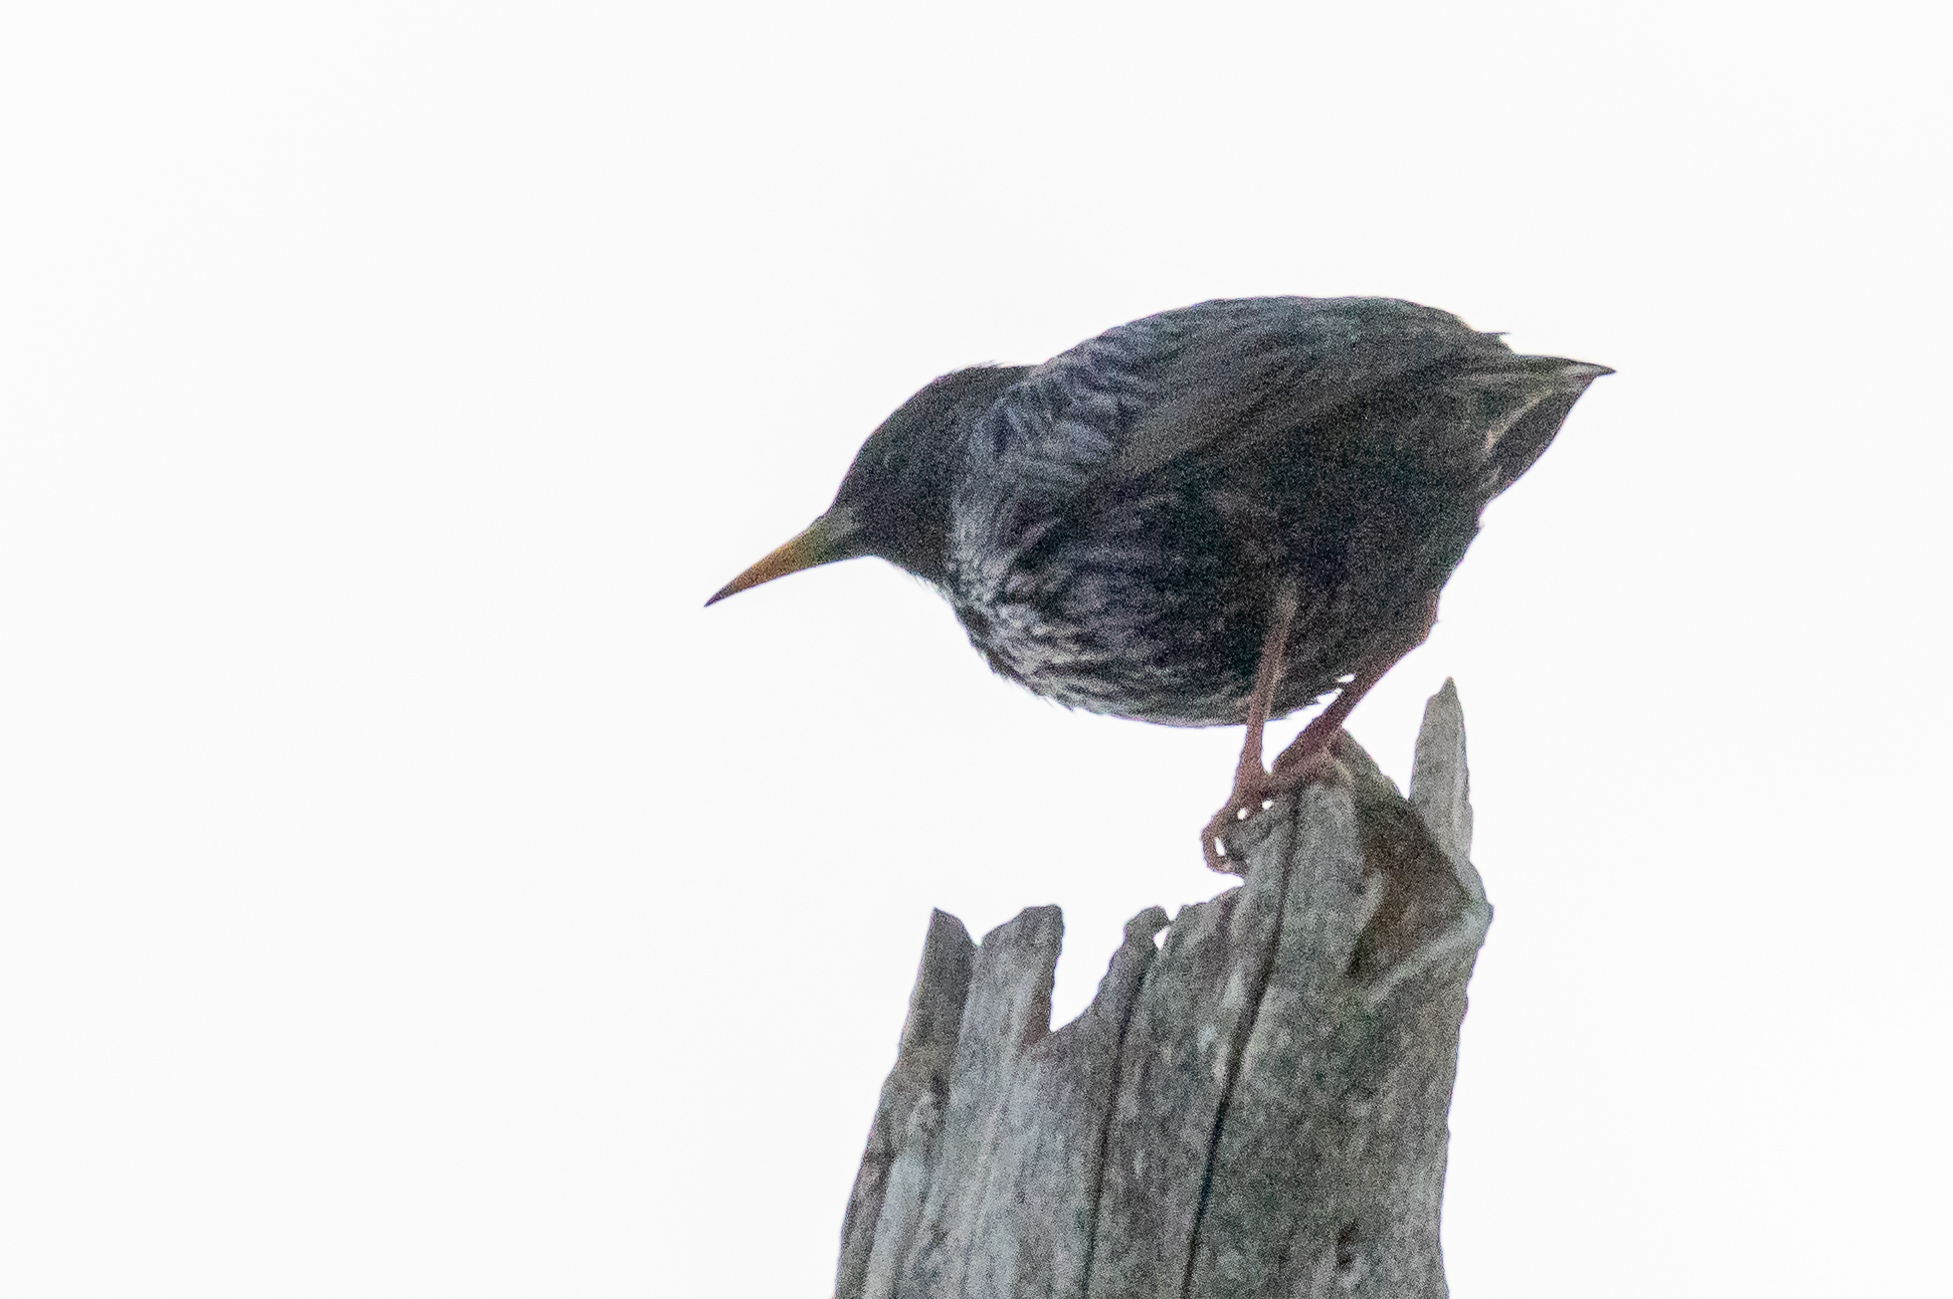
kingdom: Animalia
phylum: Chordata
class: Aves
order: Passeriformes
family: Sturnidae
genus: Sturnus
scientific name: Sturnus vulgaris
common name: Common starling
